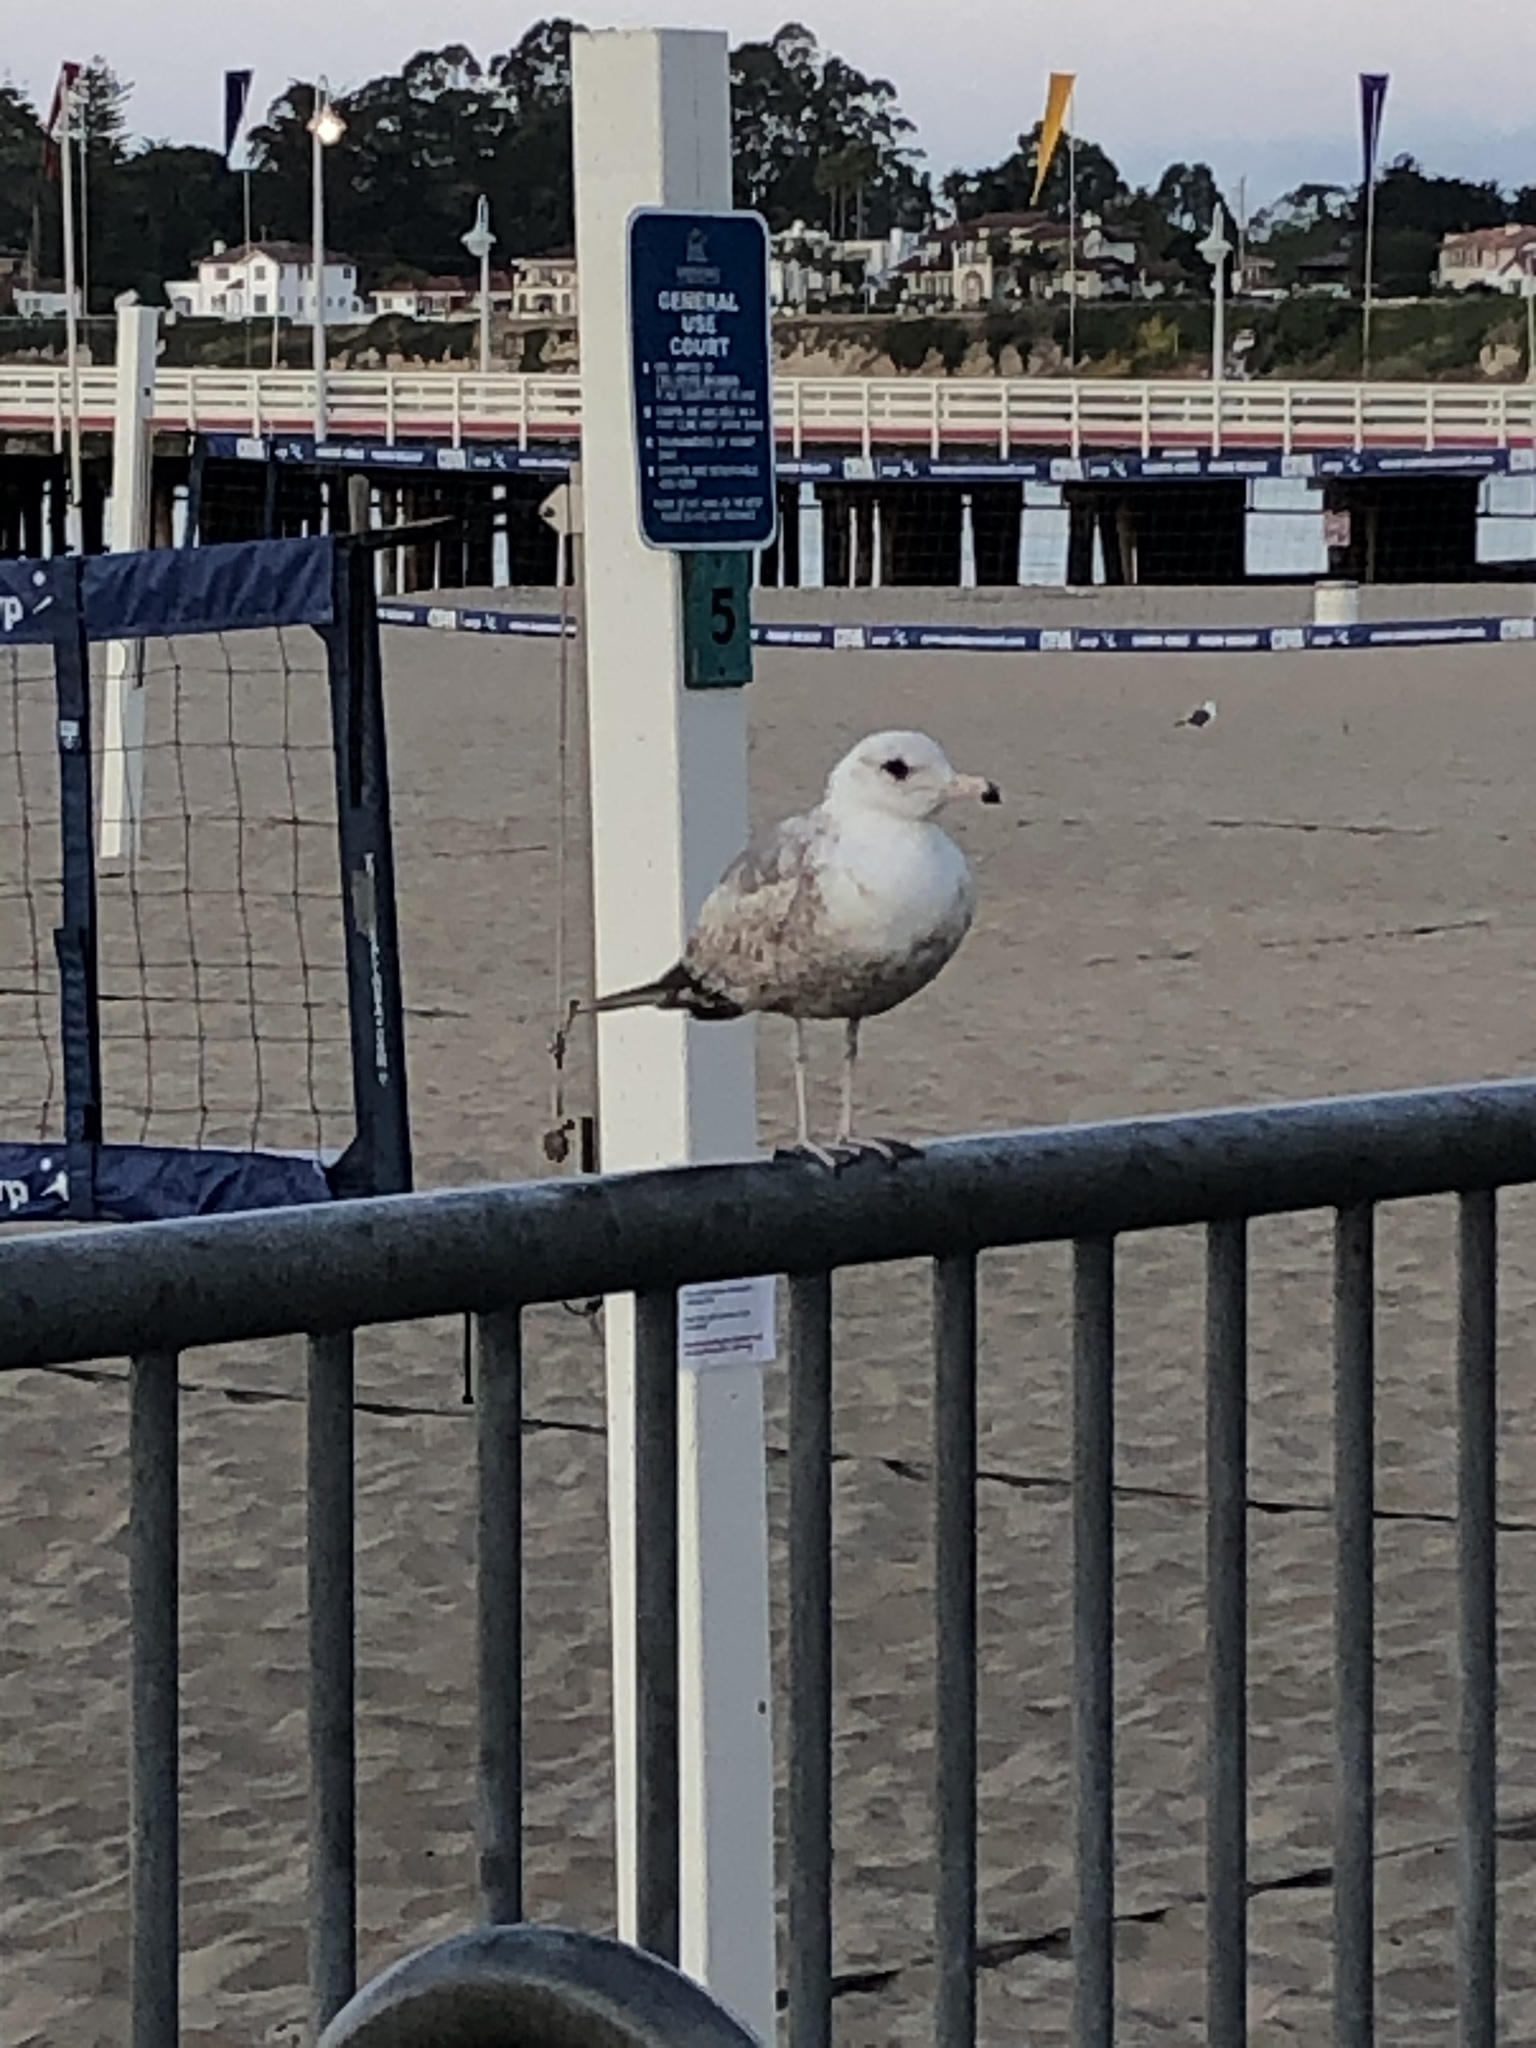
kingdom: Animalia
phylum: Chordata
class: Aves
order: Charadriiformes
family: Laridae
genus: Larus
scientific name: Larus delawarensis
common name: Ring-billed gull
